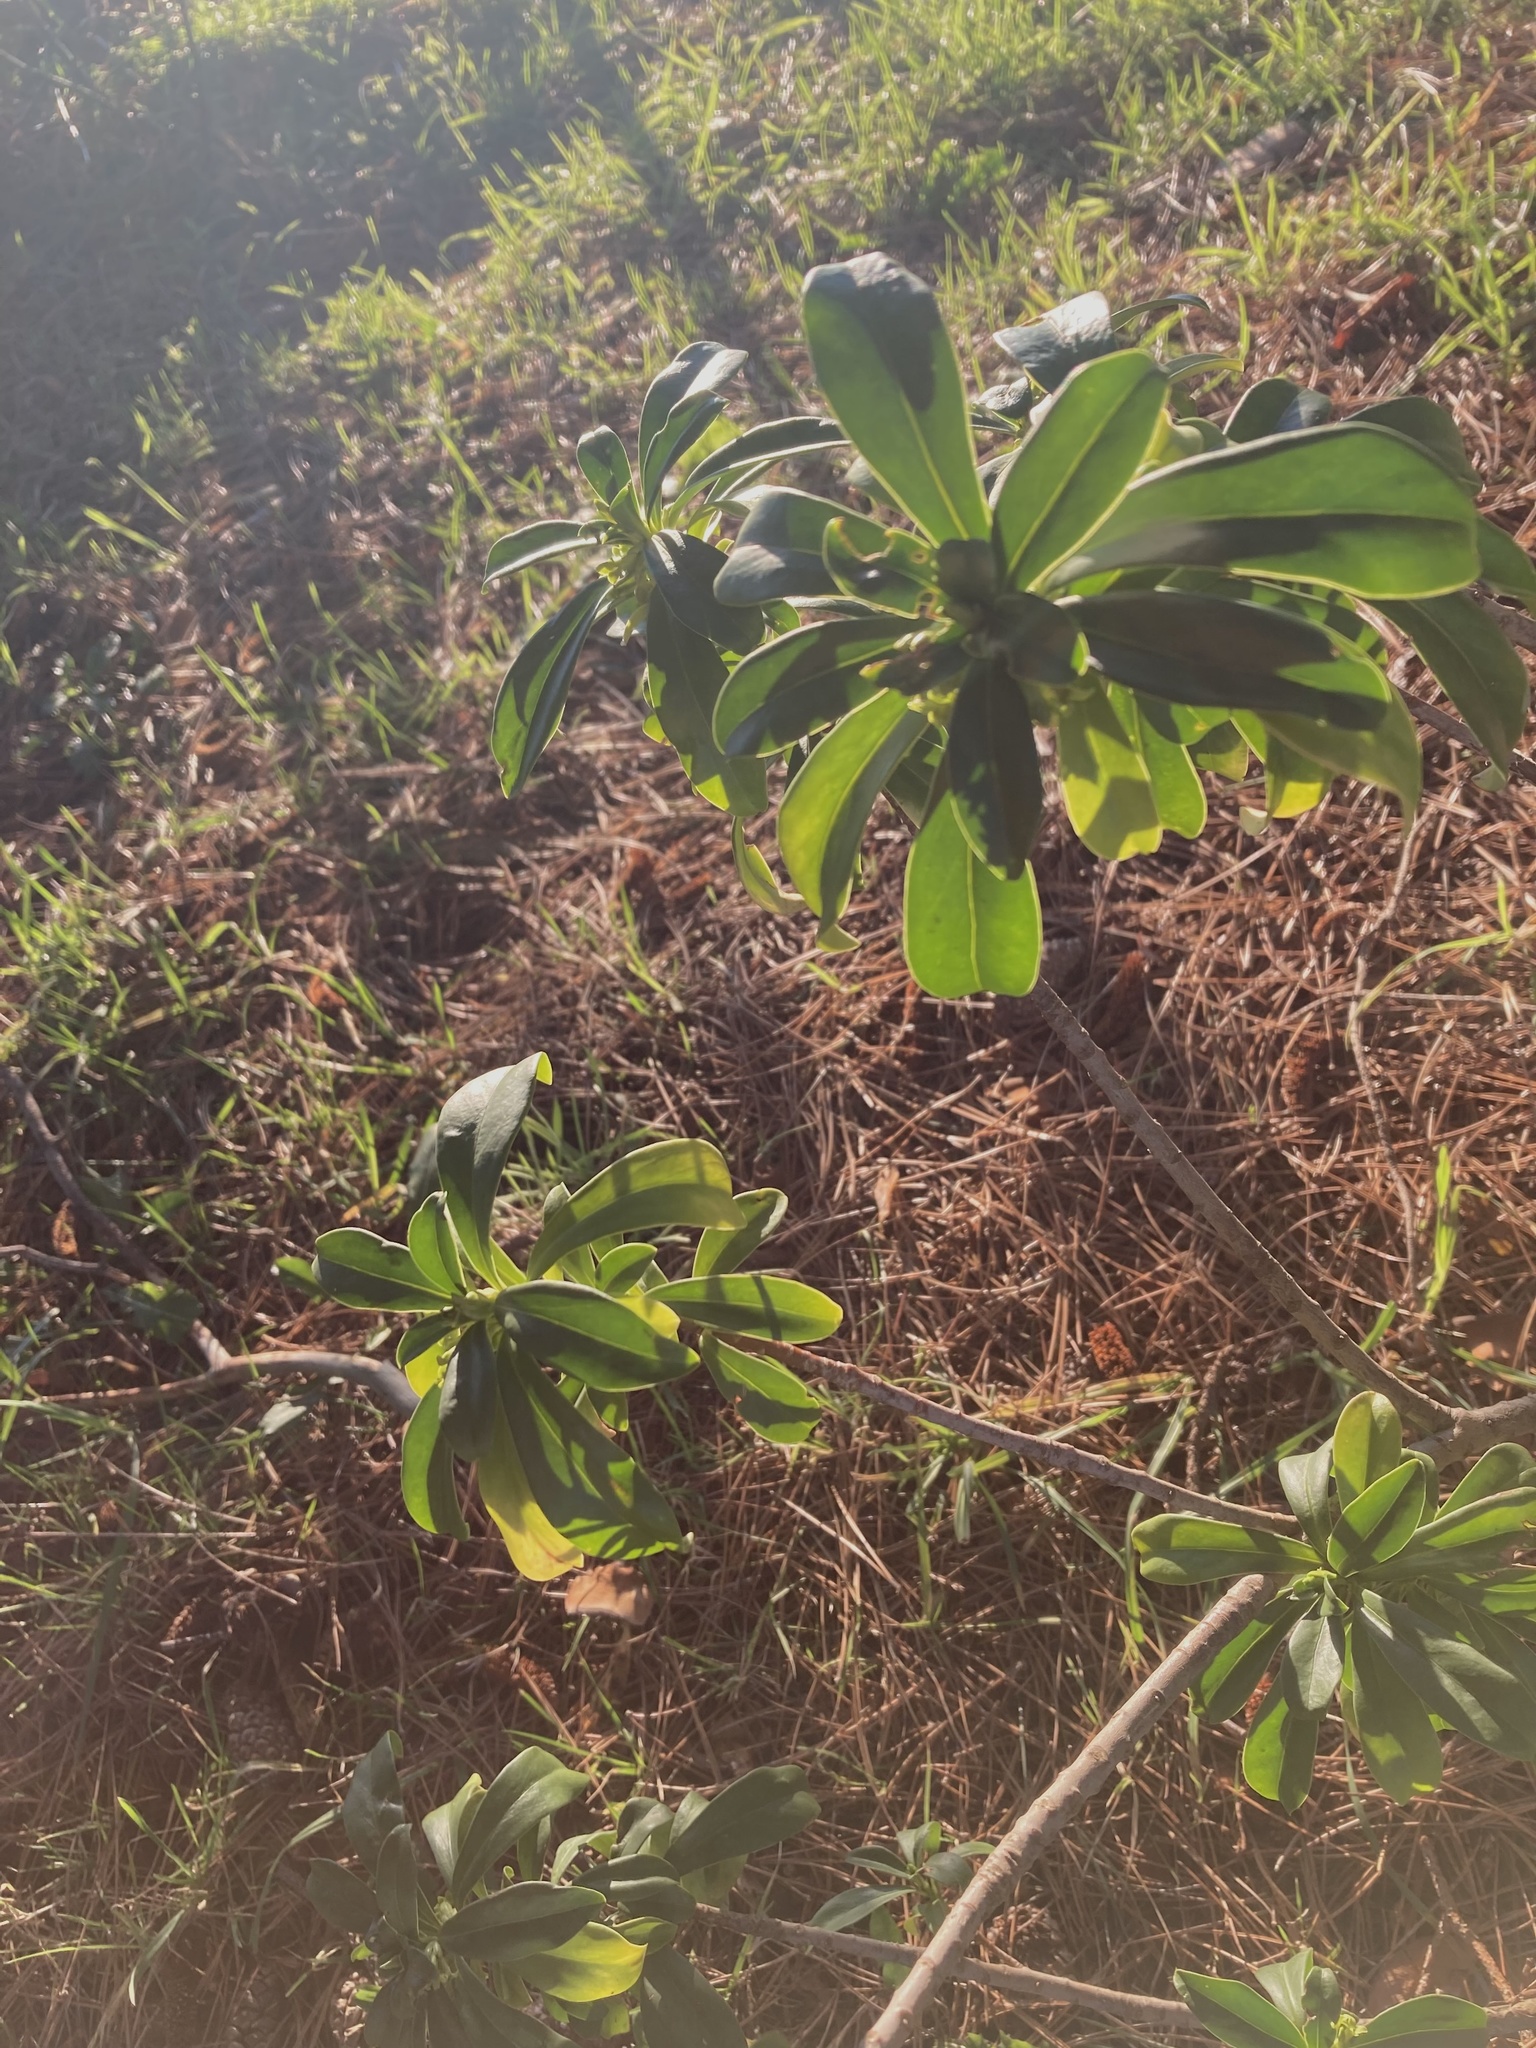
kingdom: Plantae
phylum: Tracheophyta
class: Magnoliopsida
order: Malvales
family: Thymelaeaceae
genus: Daphne
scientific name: Daphne laureola
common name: Spurge-laurel
